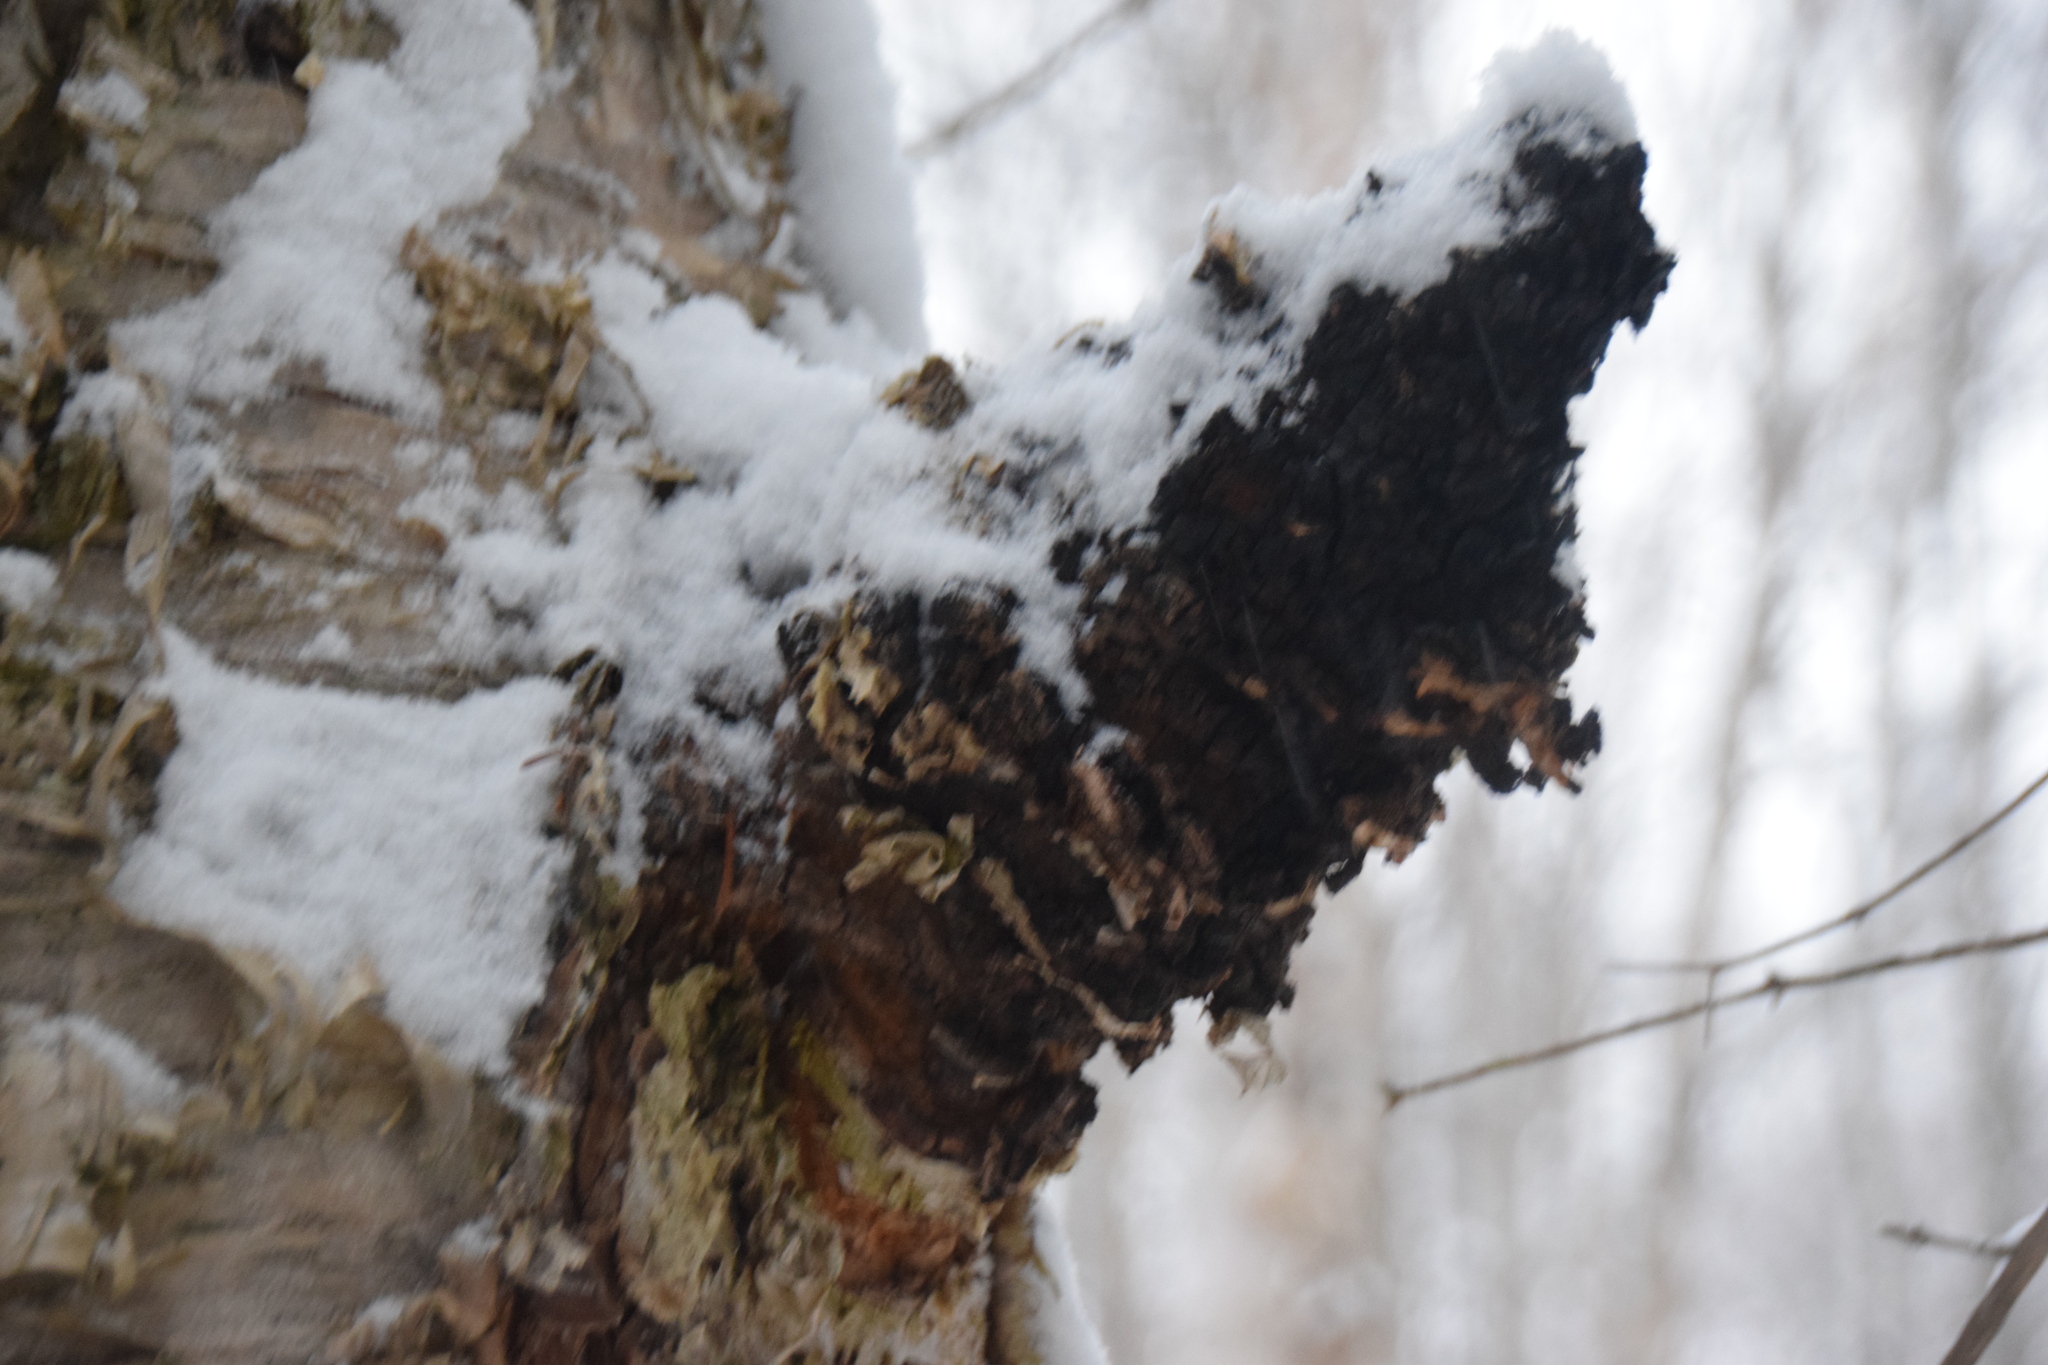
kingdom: Fungi
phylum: Basidiomycota
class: Agaricomycetes
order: Hymenochaetales
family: Hymenochaetaceae
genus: Inonotus
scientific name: Inonotus obliquus
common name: Chaga
